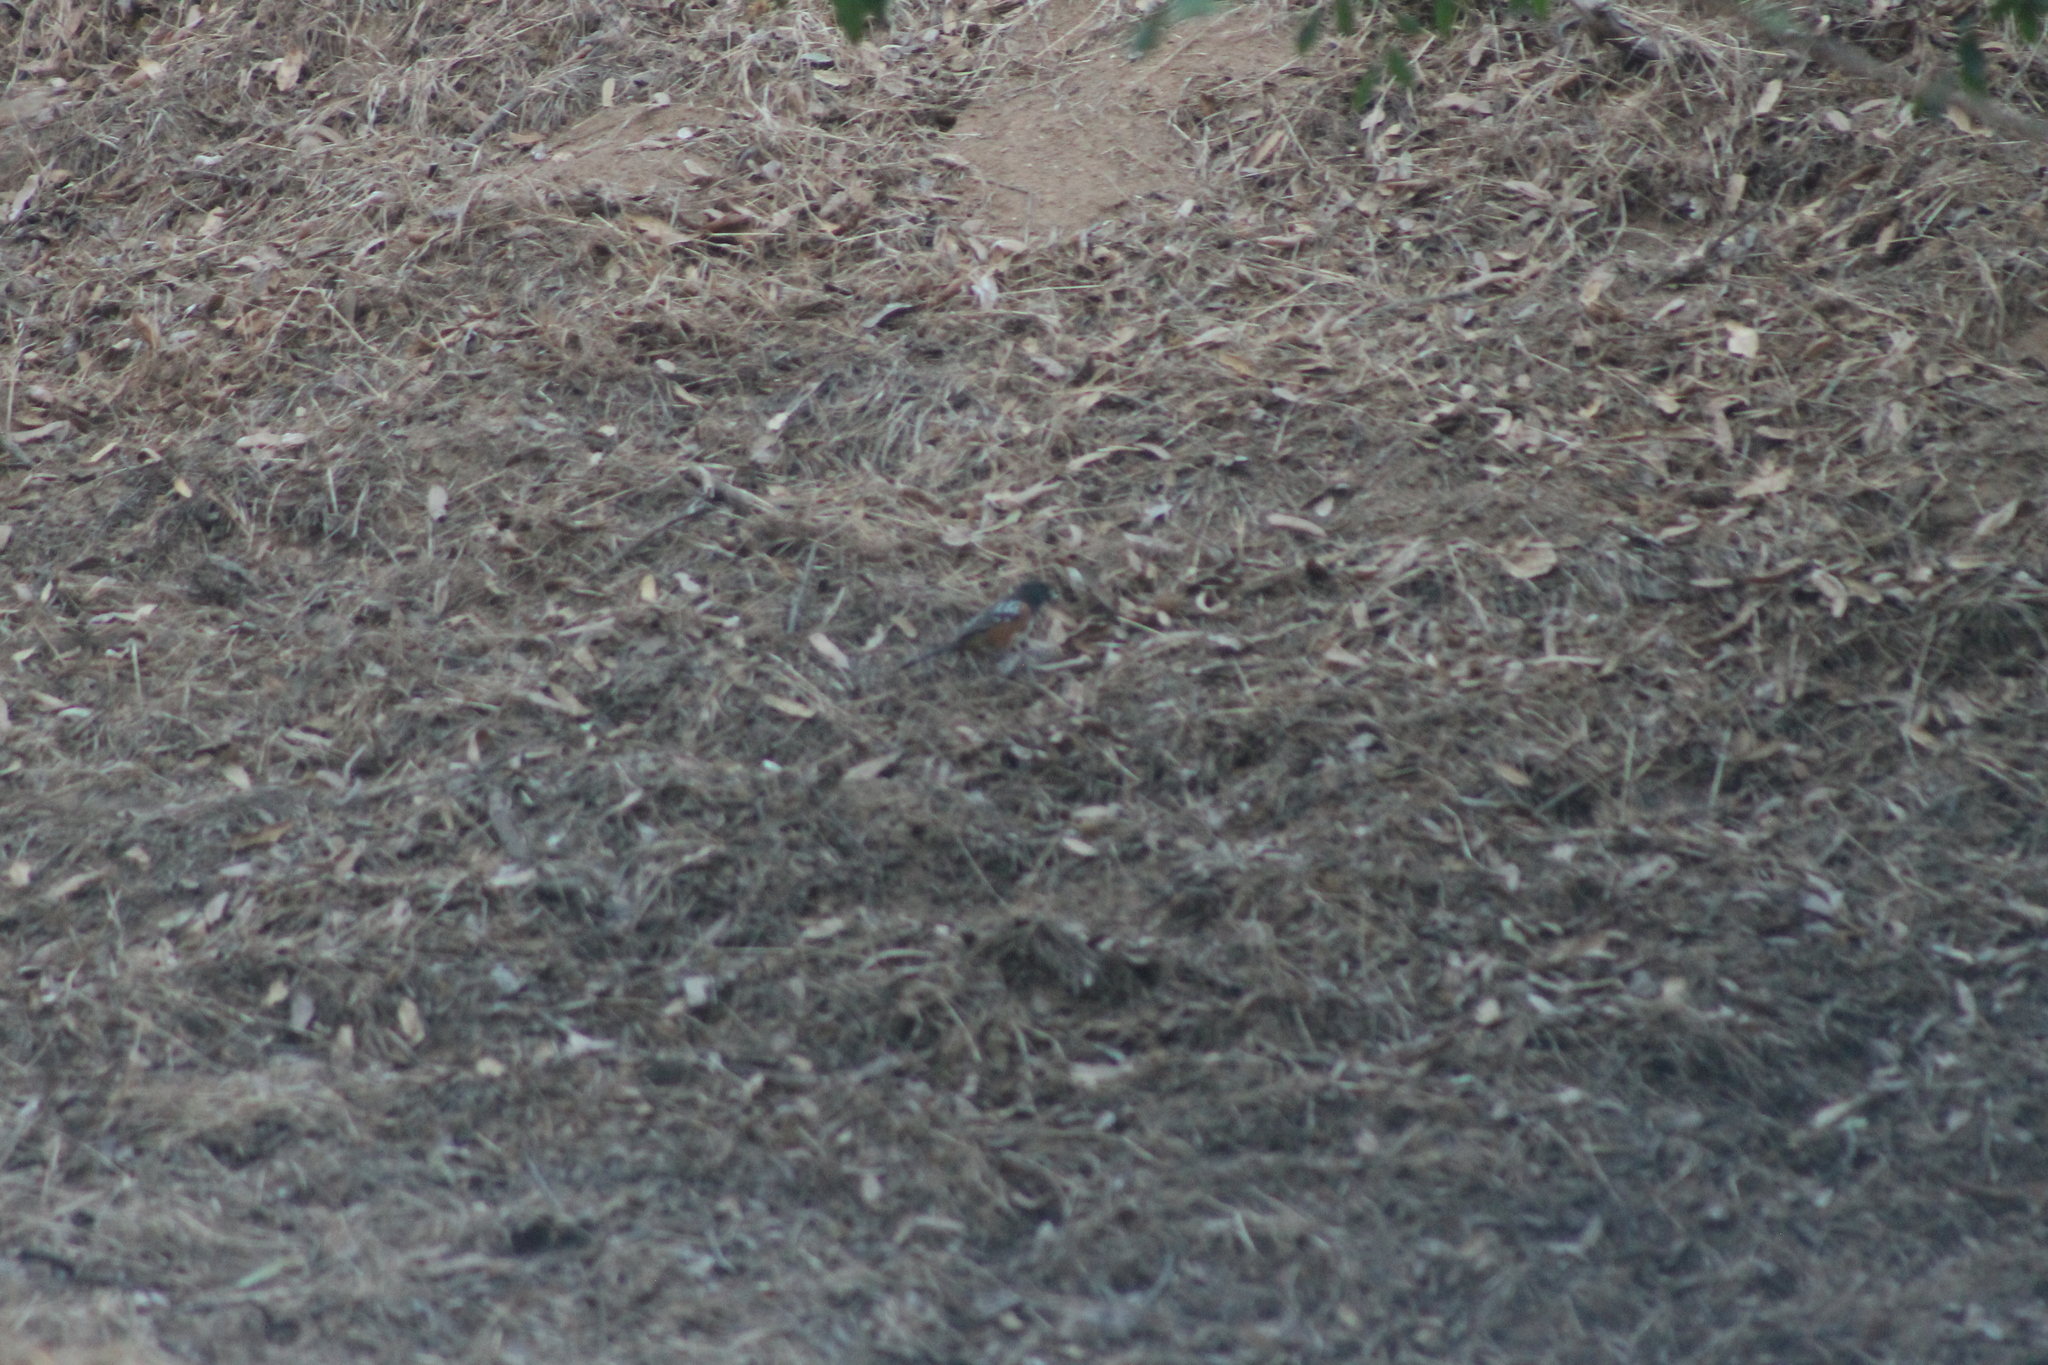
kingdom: Animalia
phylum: Chordata
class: Aves
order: Passeriformes
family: Passerellidae
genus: Pipilo
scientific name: Pipilo maculatus
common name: Spotted towhee
